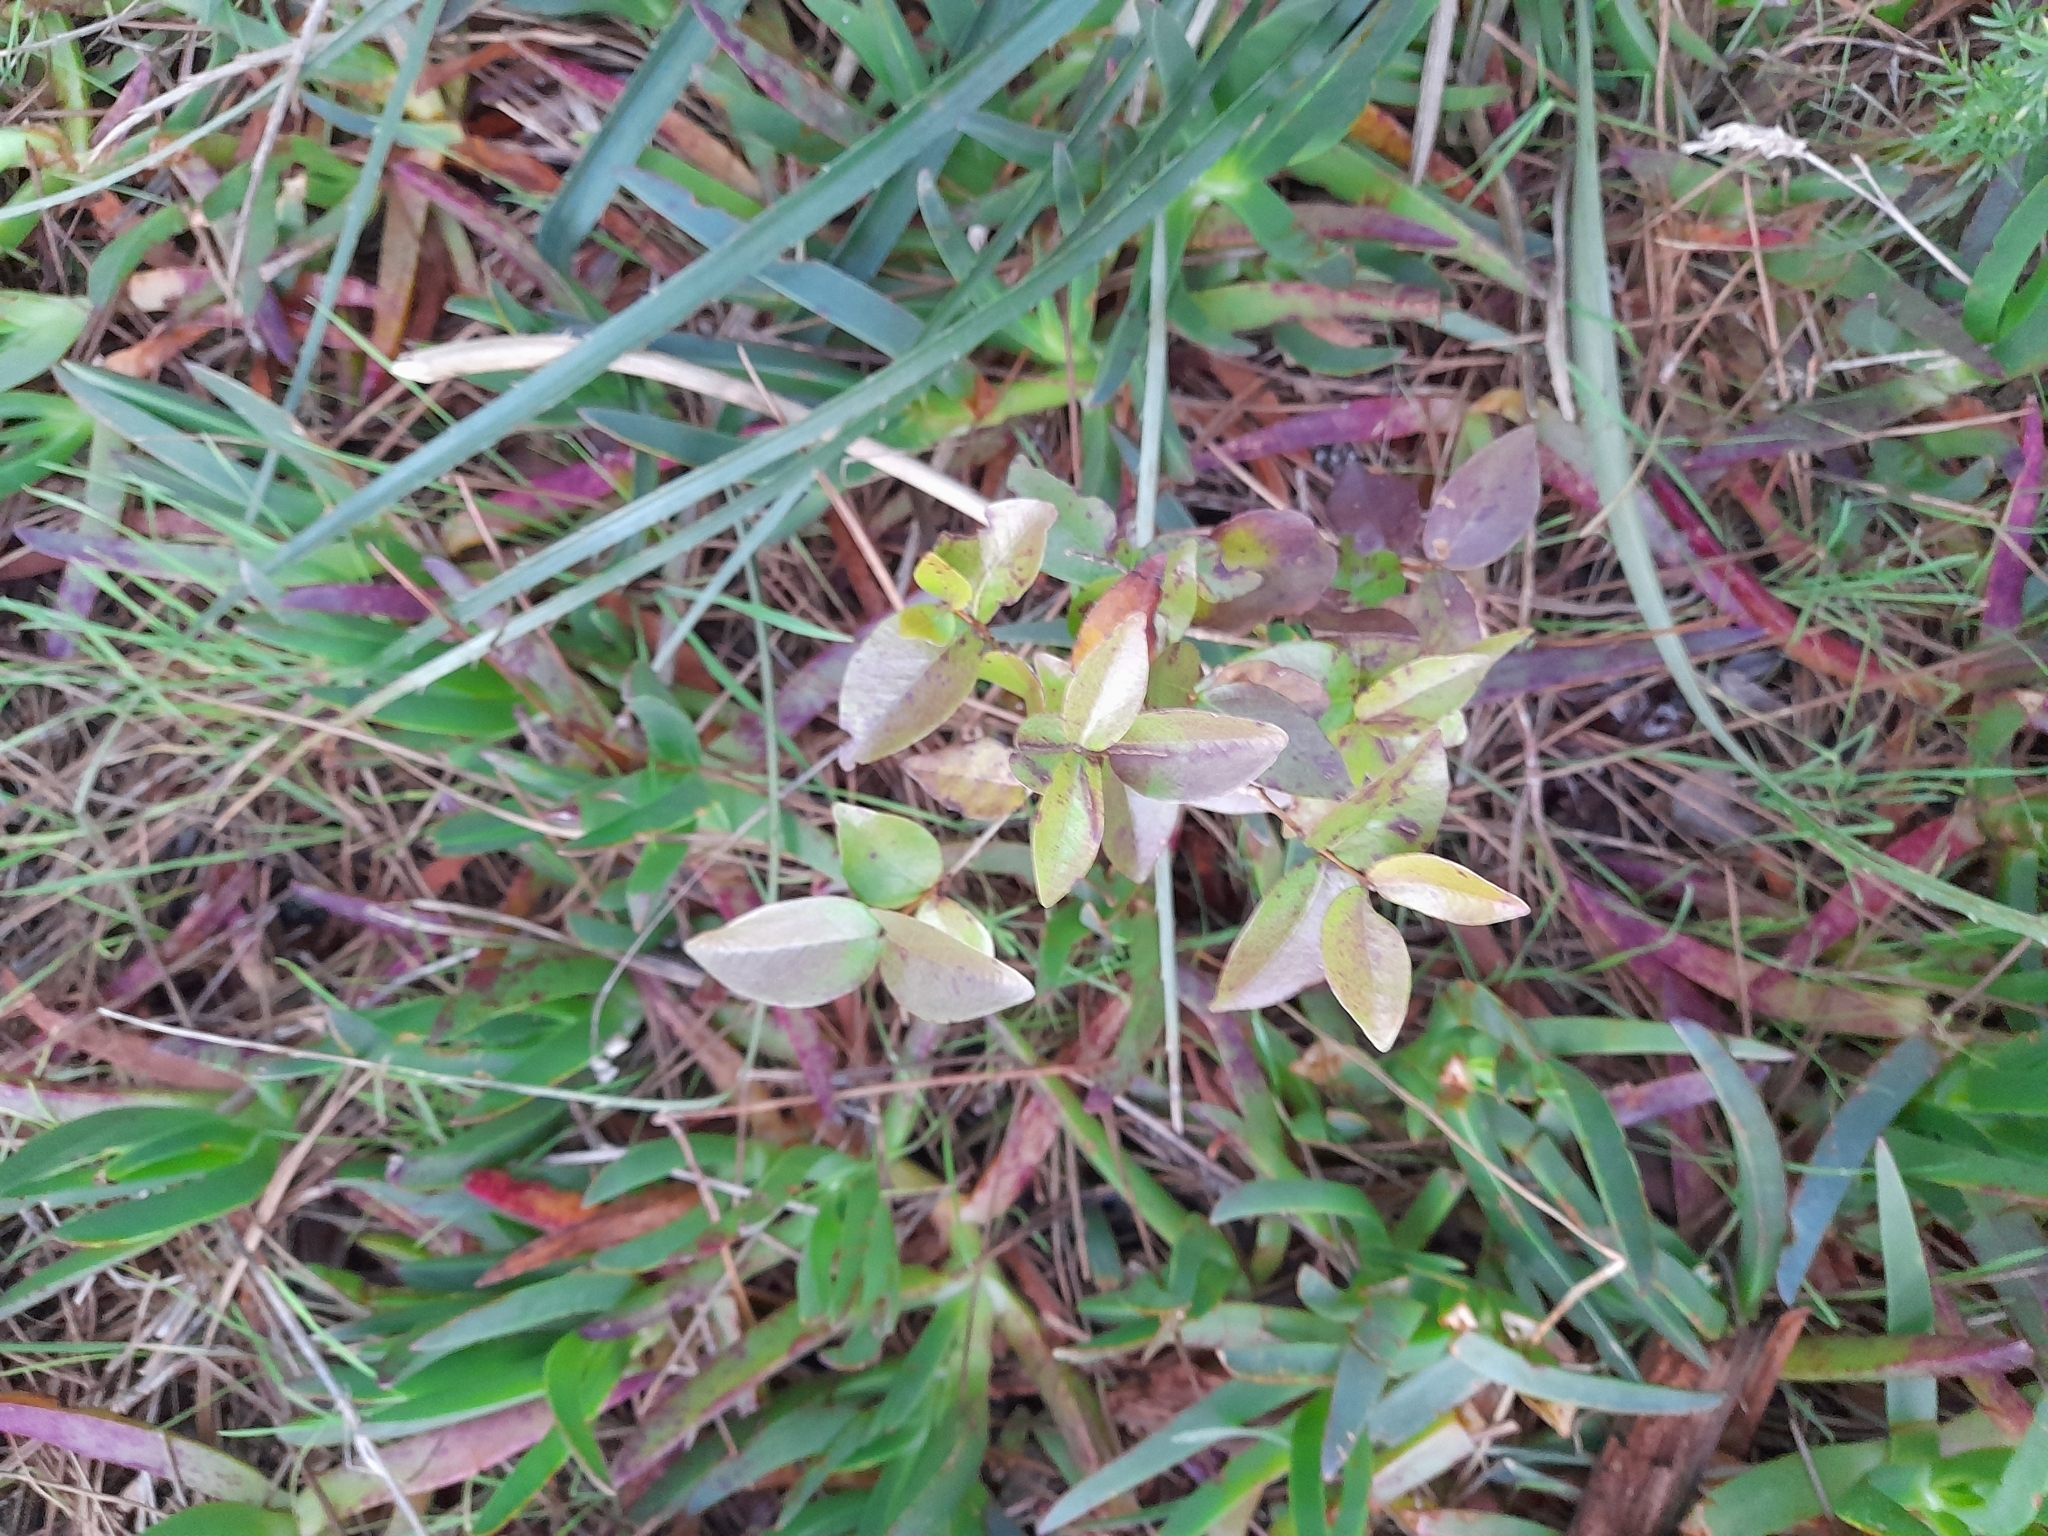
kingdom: Plantae
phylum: Tracheophyta
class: Magnoliopsida
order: Myrtales
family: Myrtaceae
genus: Eugenia
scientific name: Eugenia uniflora
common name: Surinam cherry
